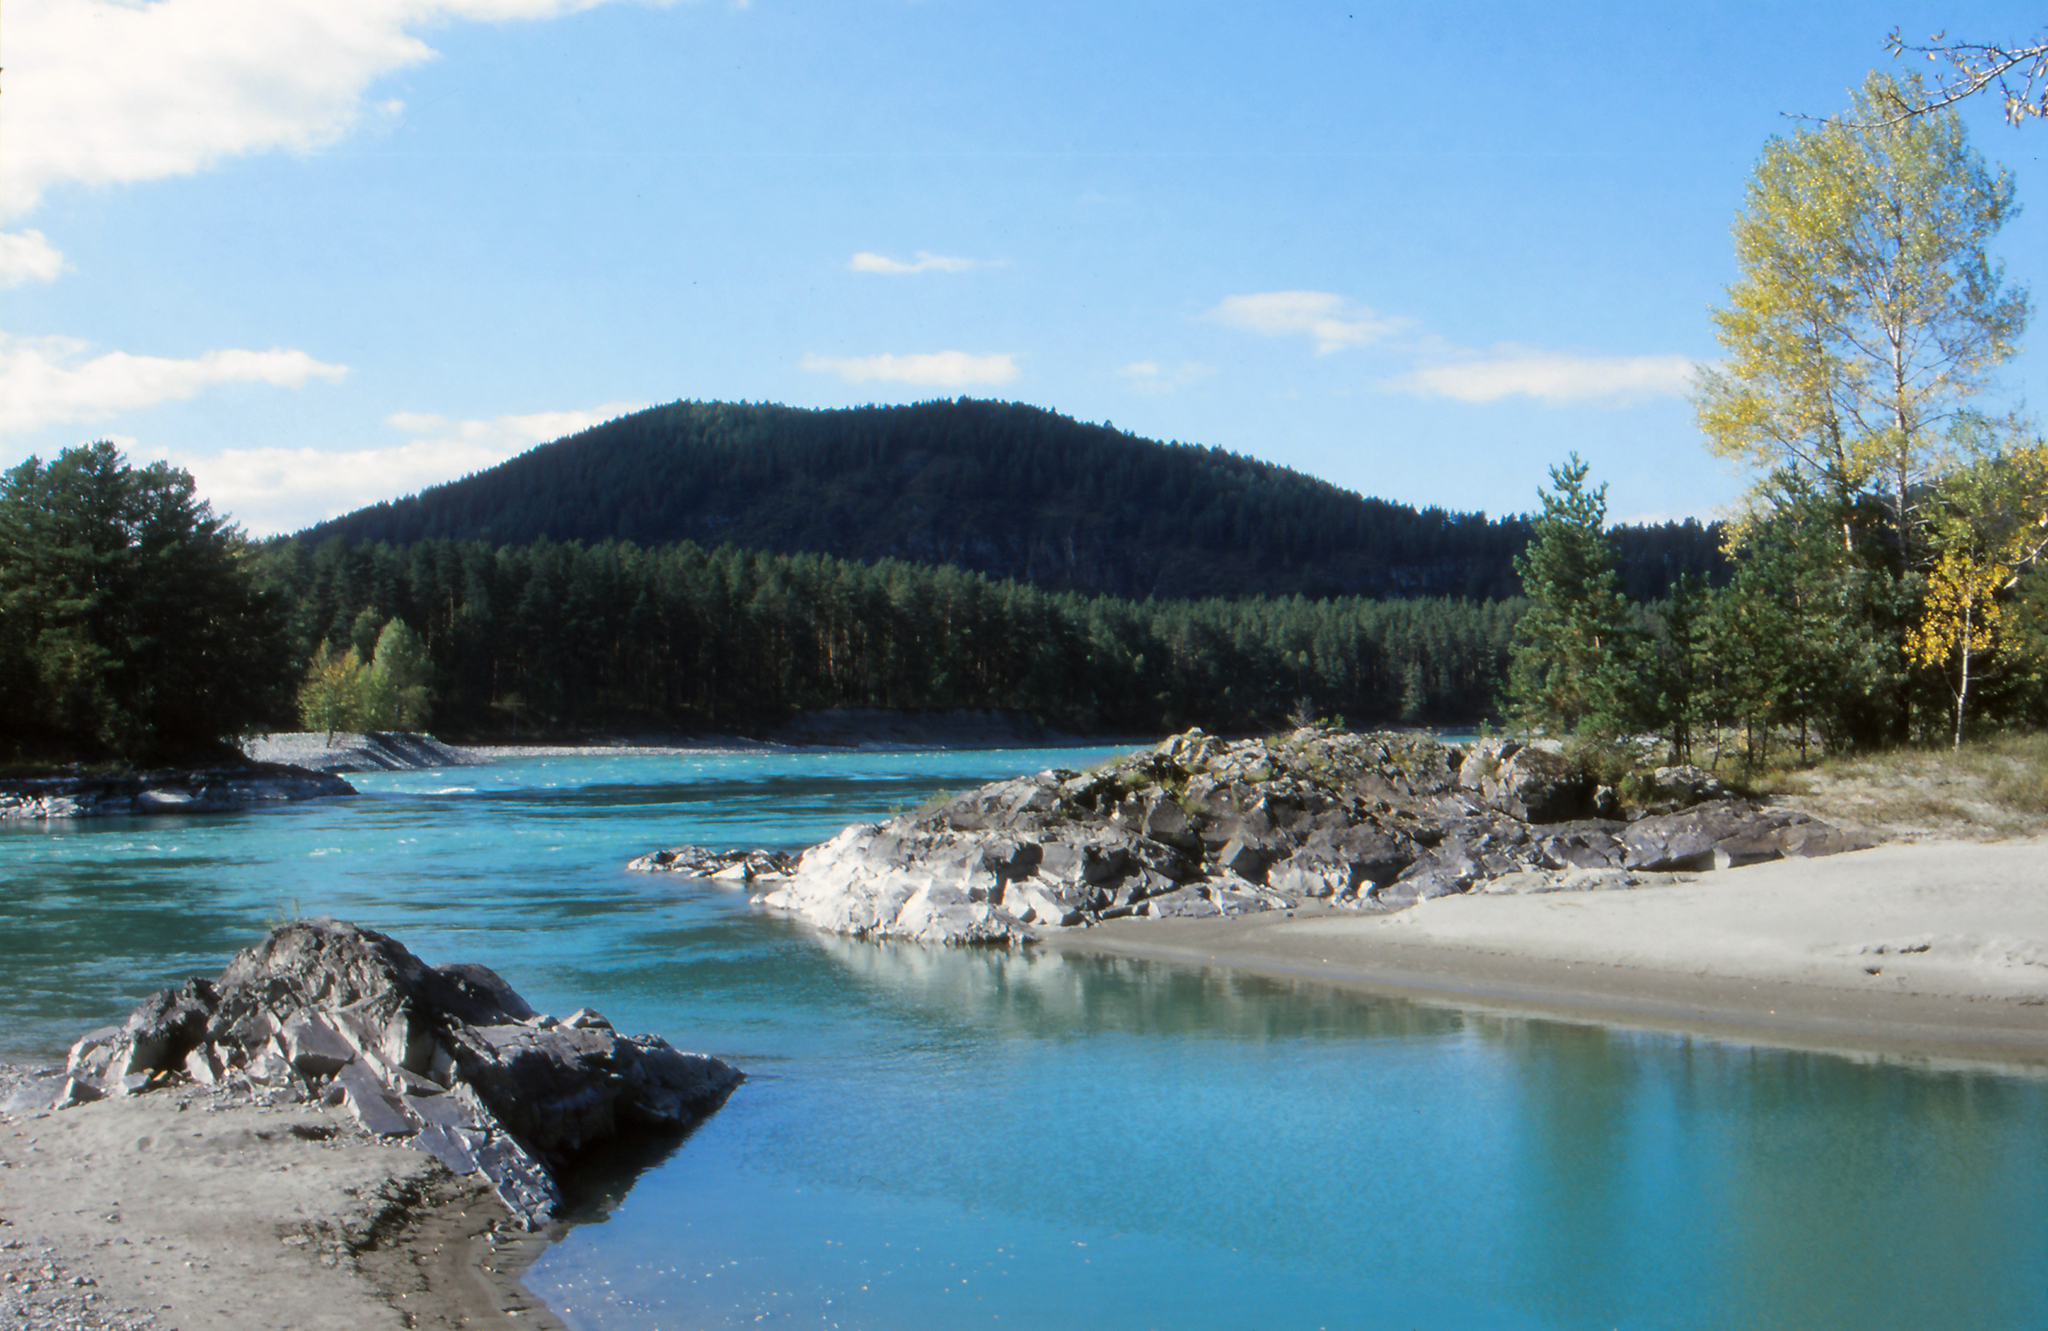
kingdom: Plantae
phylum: Tracheophyta
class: Pinopsida
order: Pinales
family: Pinaceae
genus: Pinus
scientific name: Pinus sylvestris
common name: Scots pine
